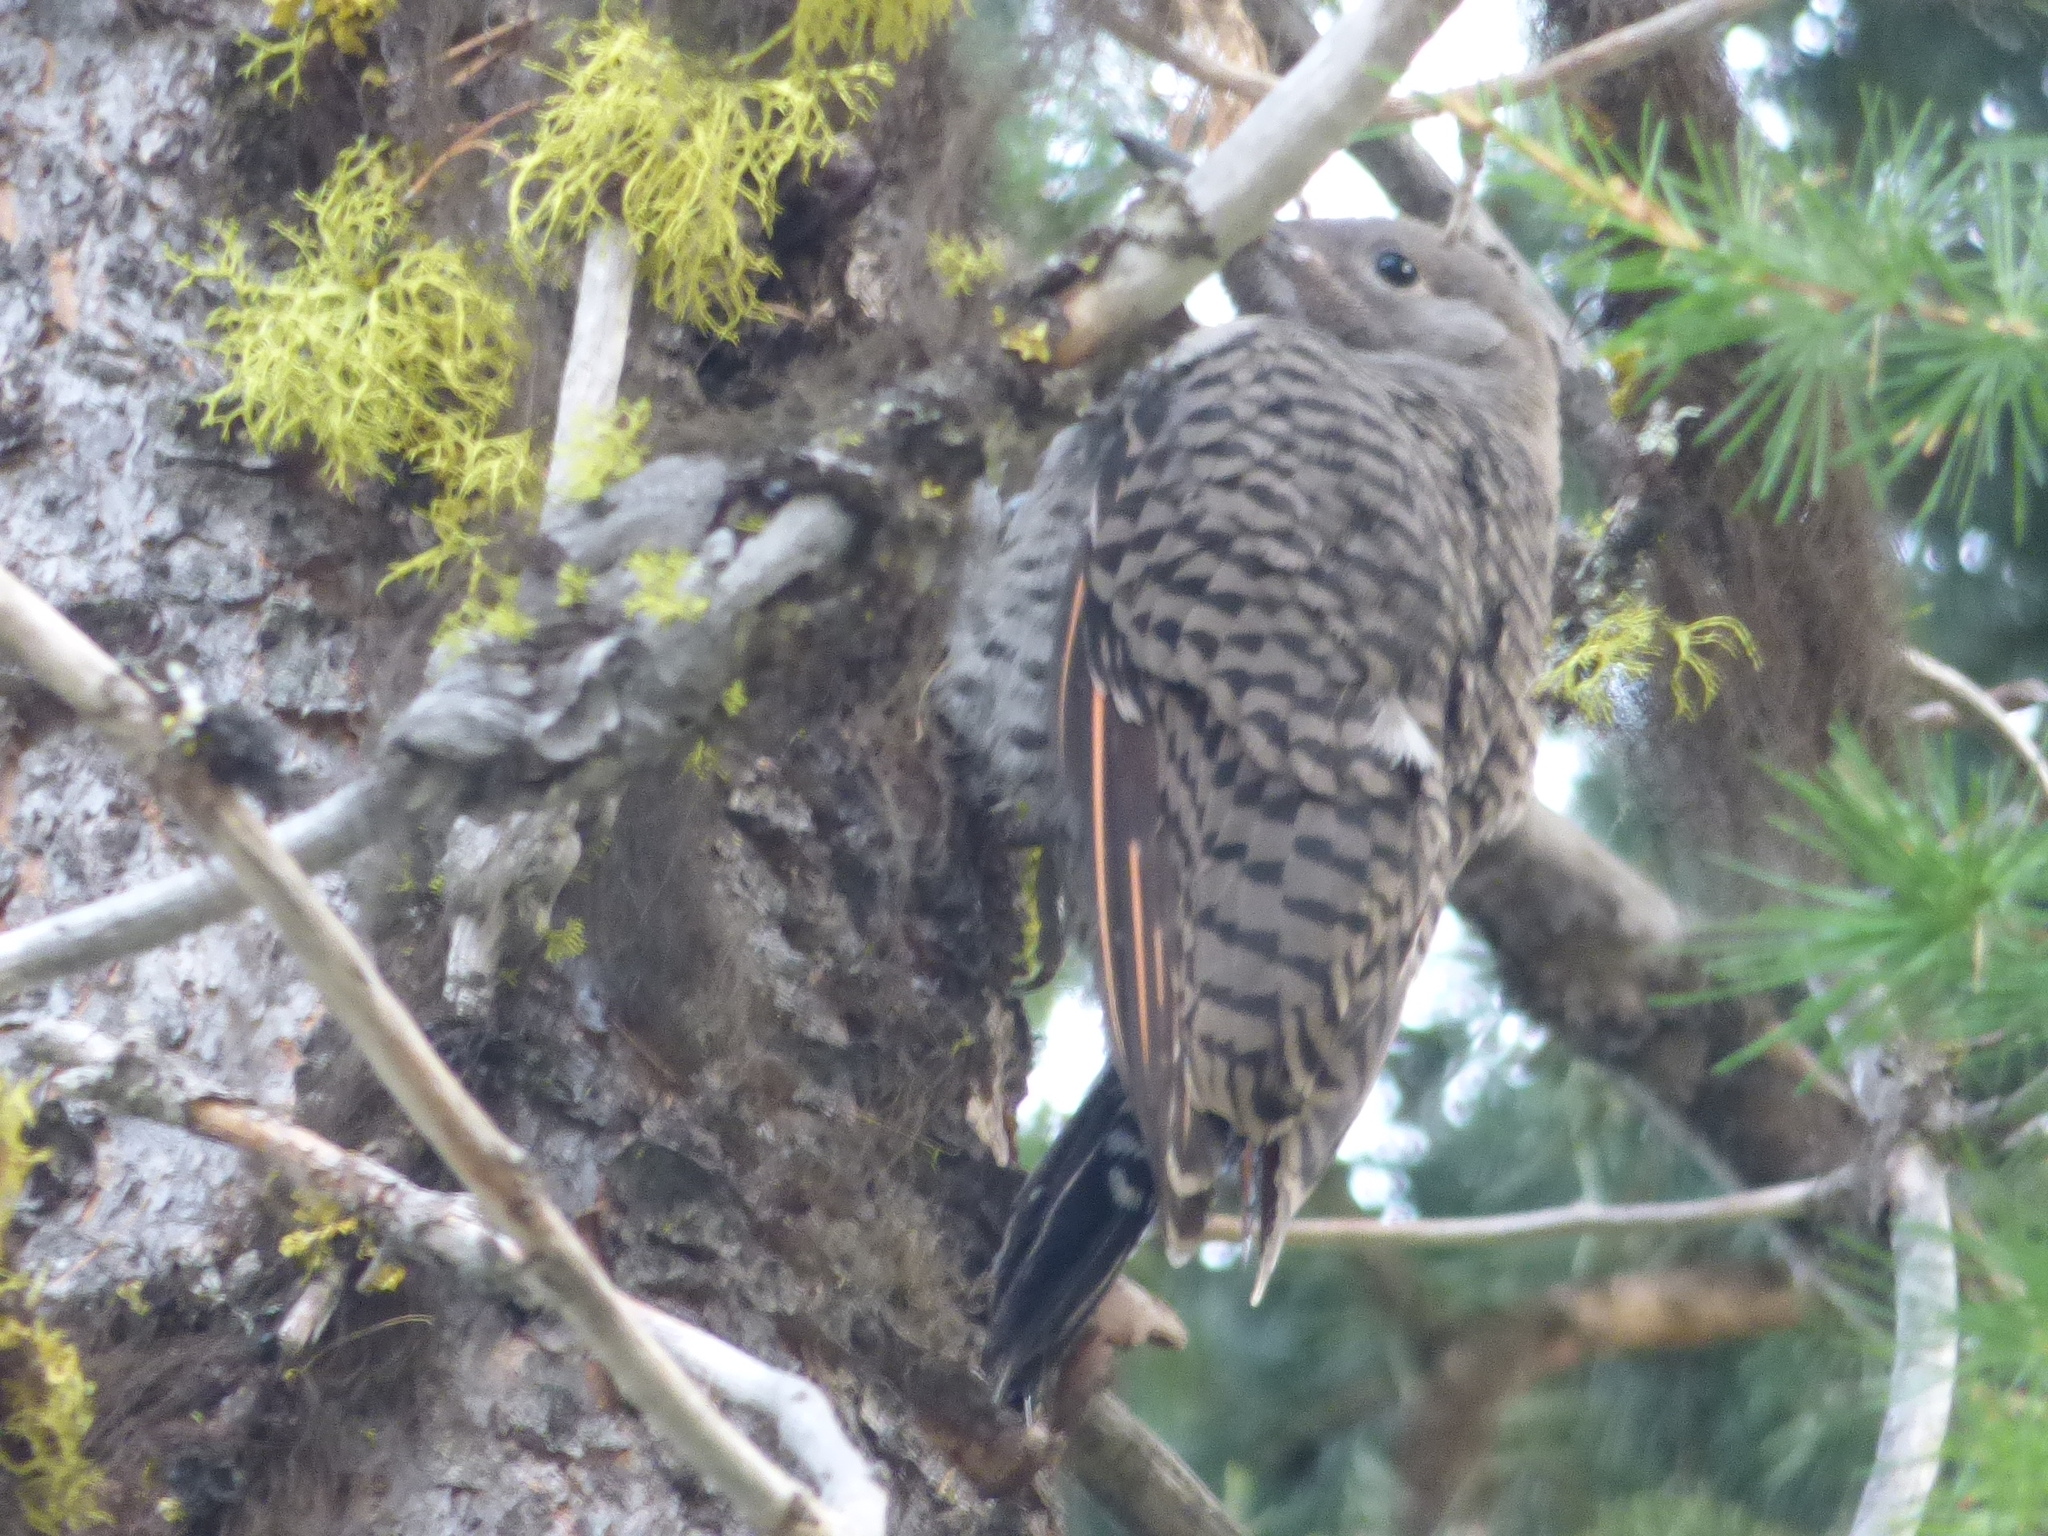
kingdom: Animalia
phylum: Chordata
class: Aves
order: Piciformes
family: Picidae
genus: Colaptes
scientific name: Colaptes auratus
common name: Northern flicker
